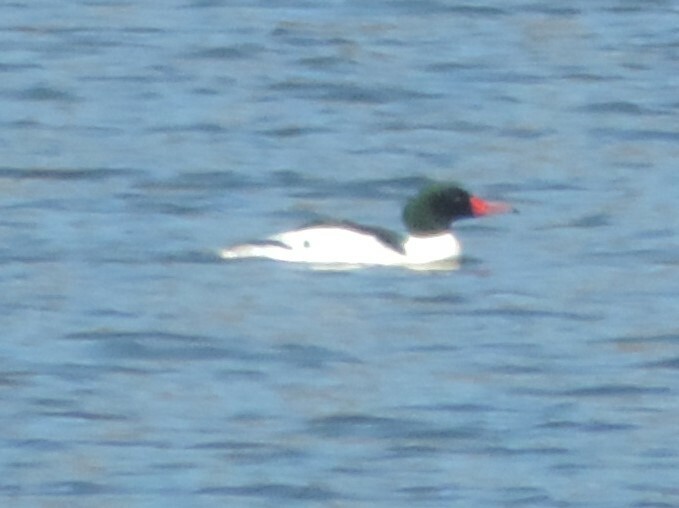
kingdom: Animalia
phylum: Chordata
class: Aves
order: Anseriformes
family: Anatidae
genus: Mergus
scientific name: Mergus merganser
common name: Common merganser
